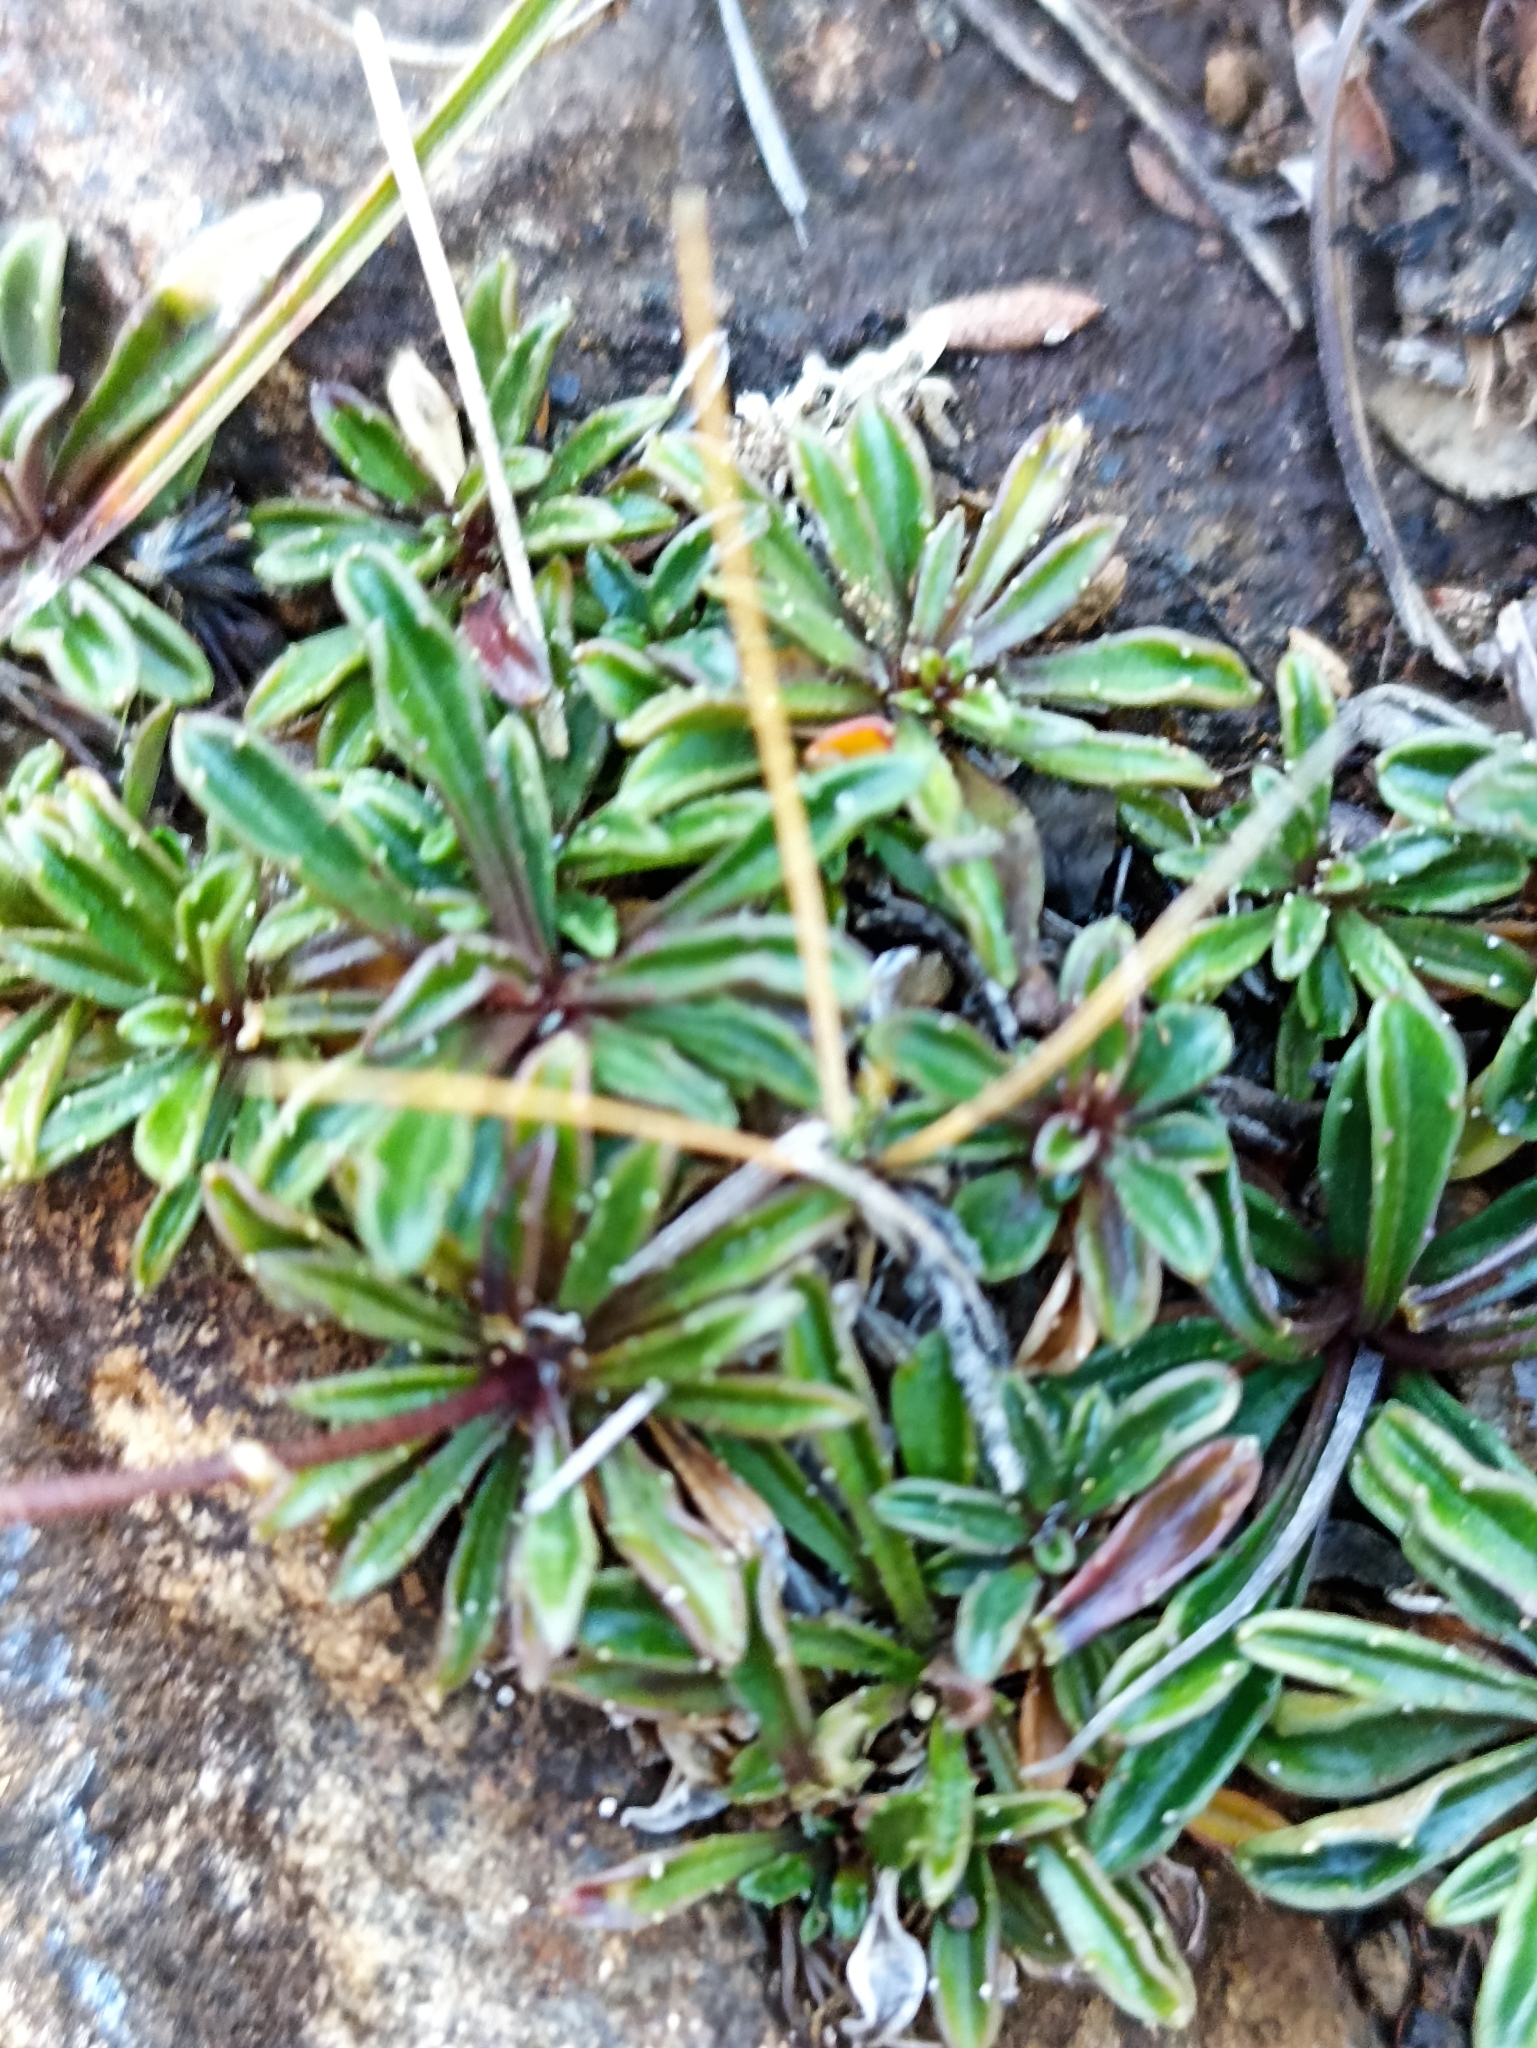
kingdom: Plantae
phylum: Tracheophyta
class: Magnoliopsida
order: Asterales
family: Campanulaceae
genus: Wahlenbergia
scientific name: Wahlenbergia albomarginata
